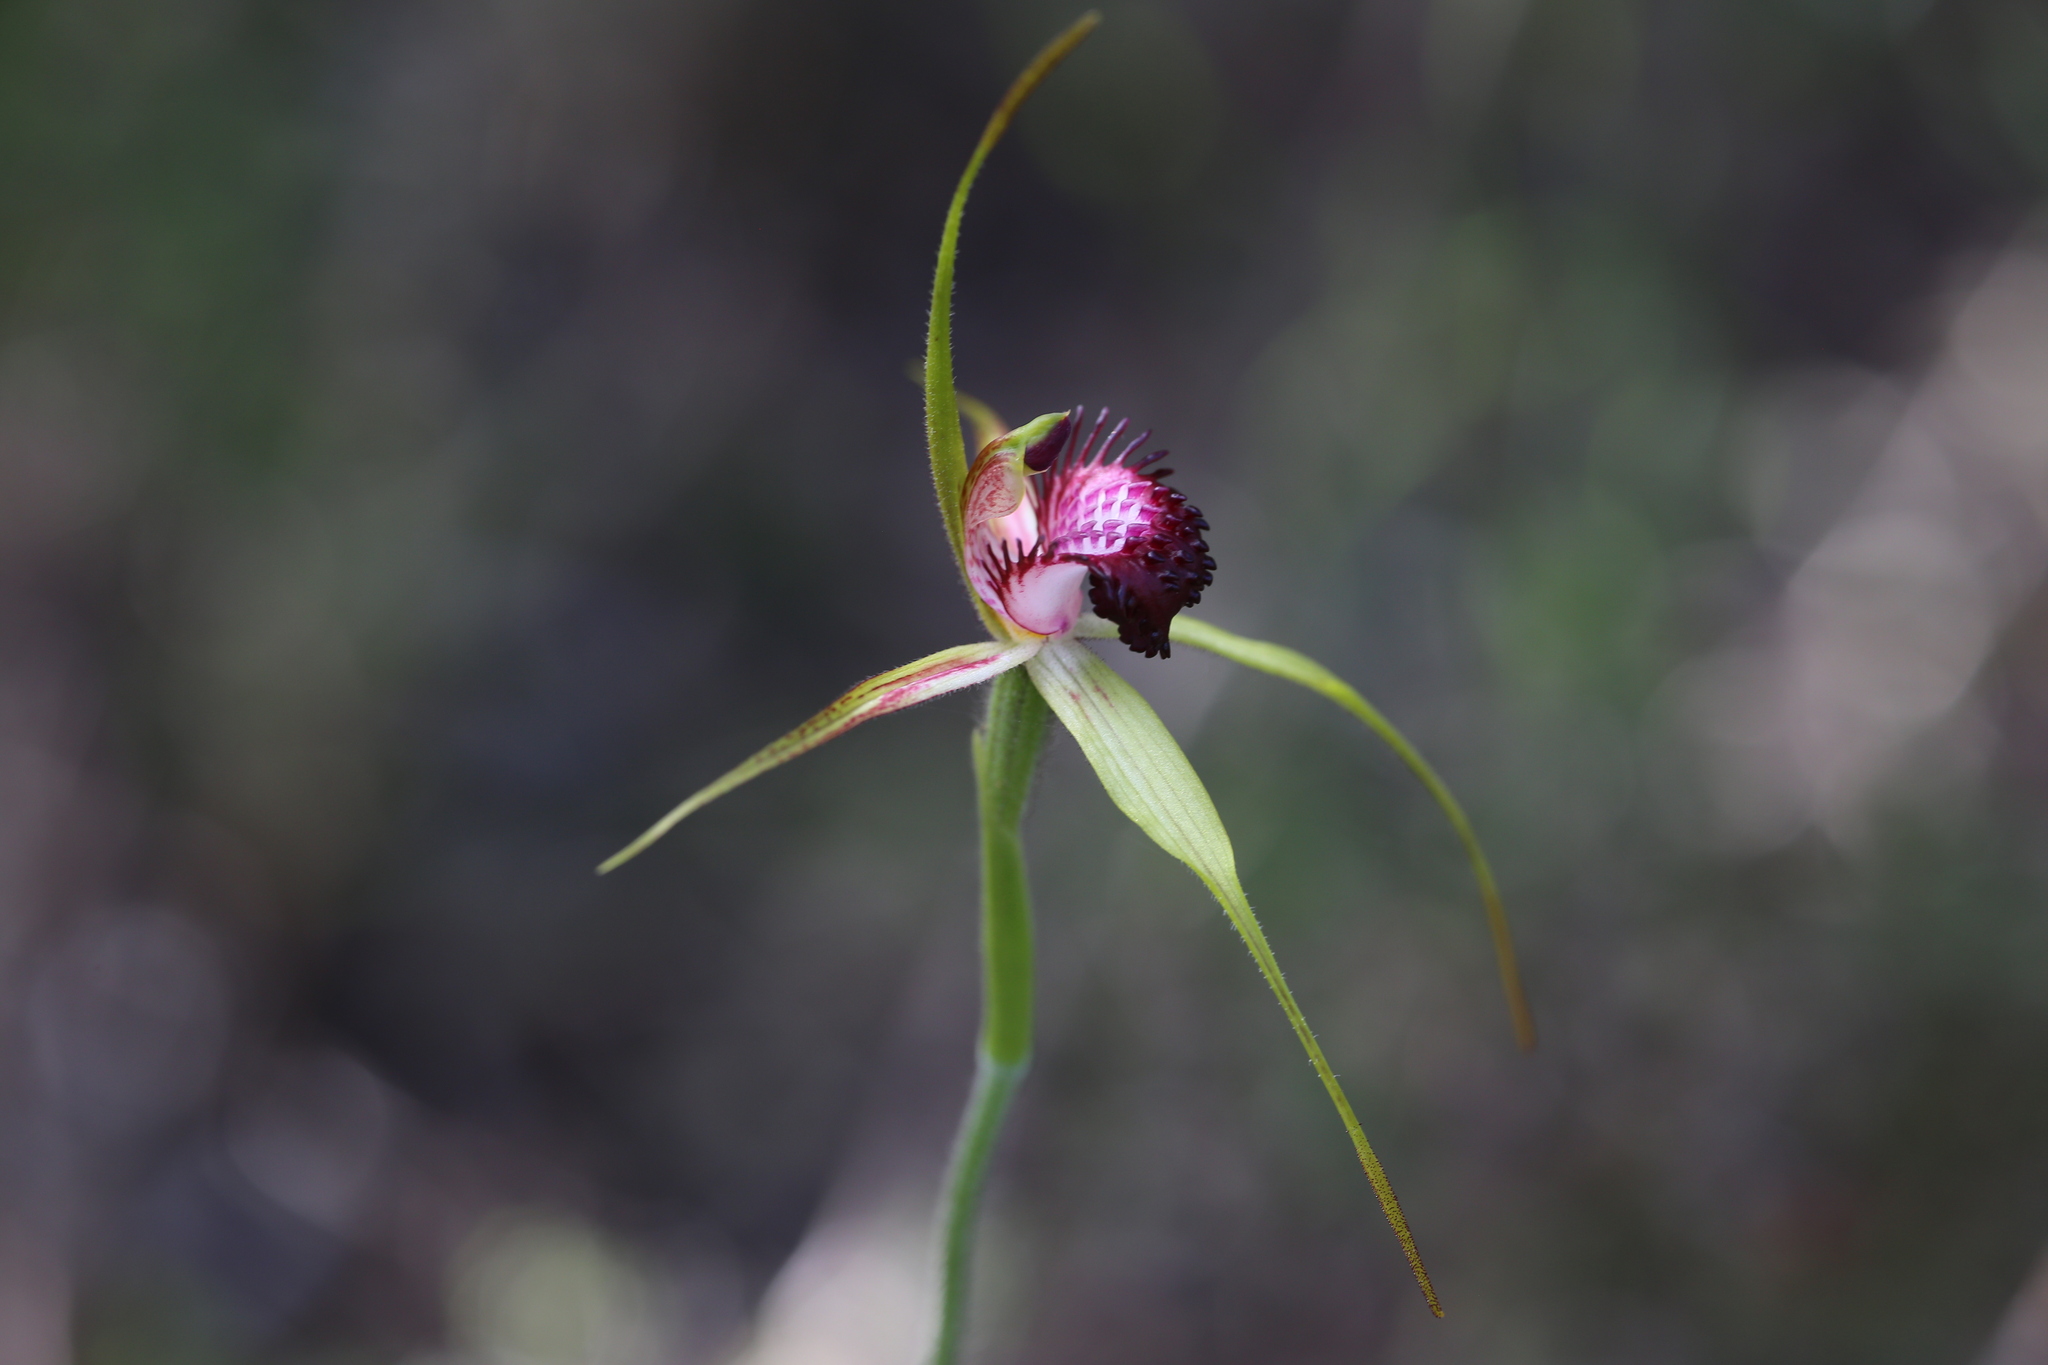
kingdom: Plantae
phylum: Tracheophyta
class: Liliopsida
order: Asparagales
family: Orchidaceae
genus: Caladenia
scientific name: Caladenia applanata
